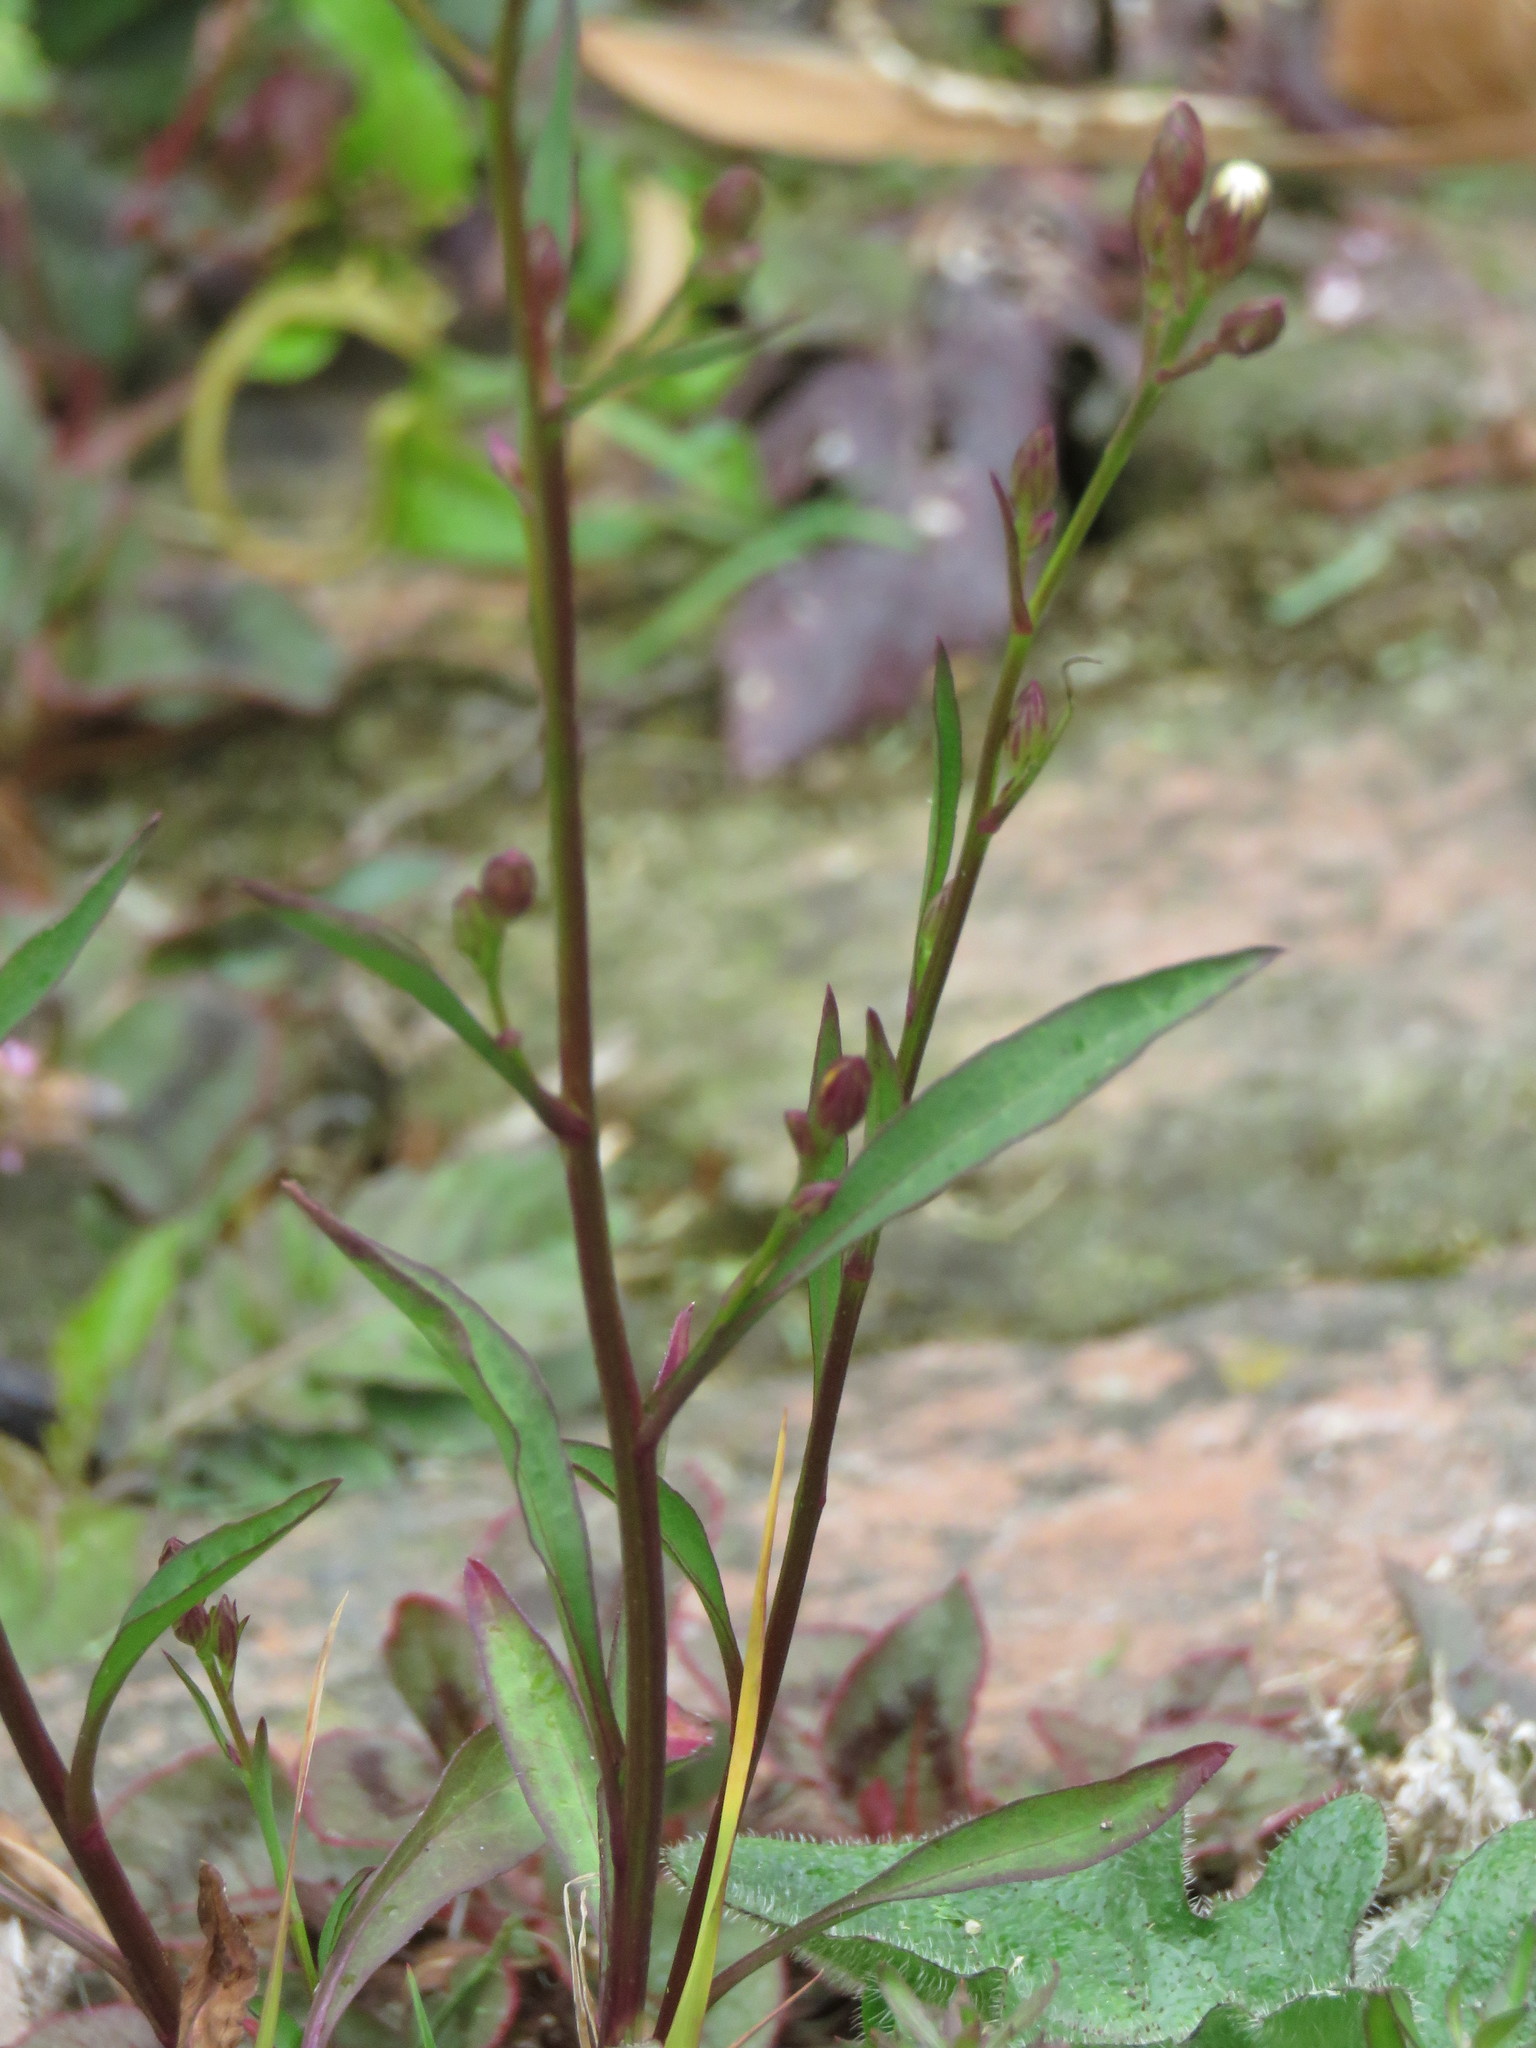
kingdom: Plantae
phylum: Tracheophyta
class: Magnoliopsida
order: Asterales
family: Asteraceae
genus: Symphyotrichum
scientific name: Symphyotrichum squamatum
